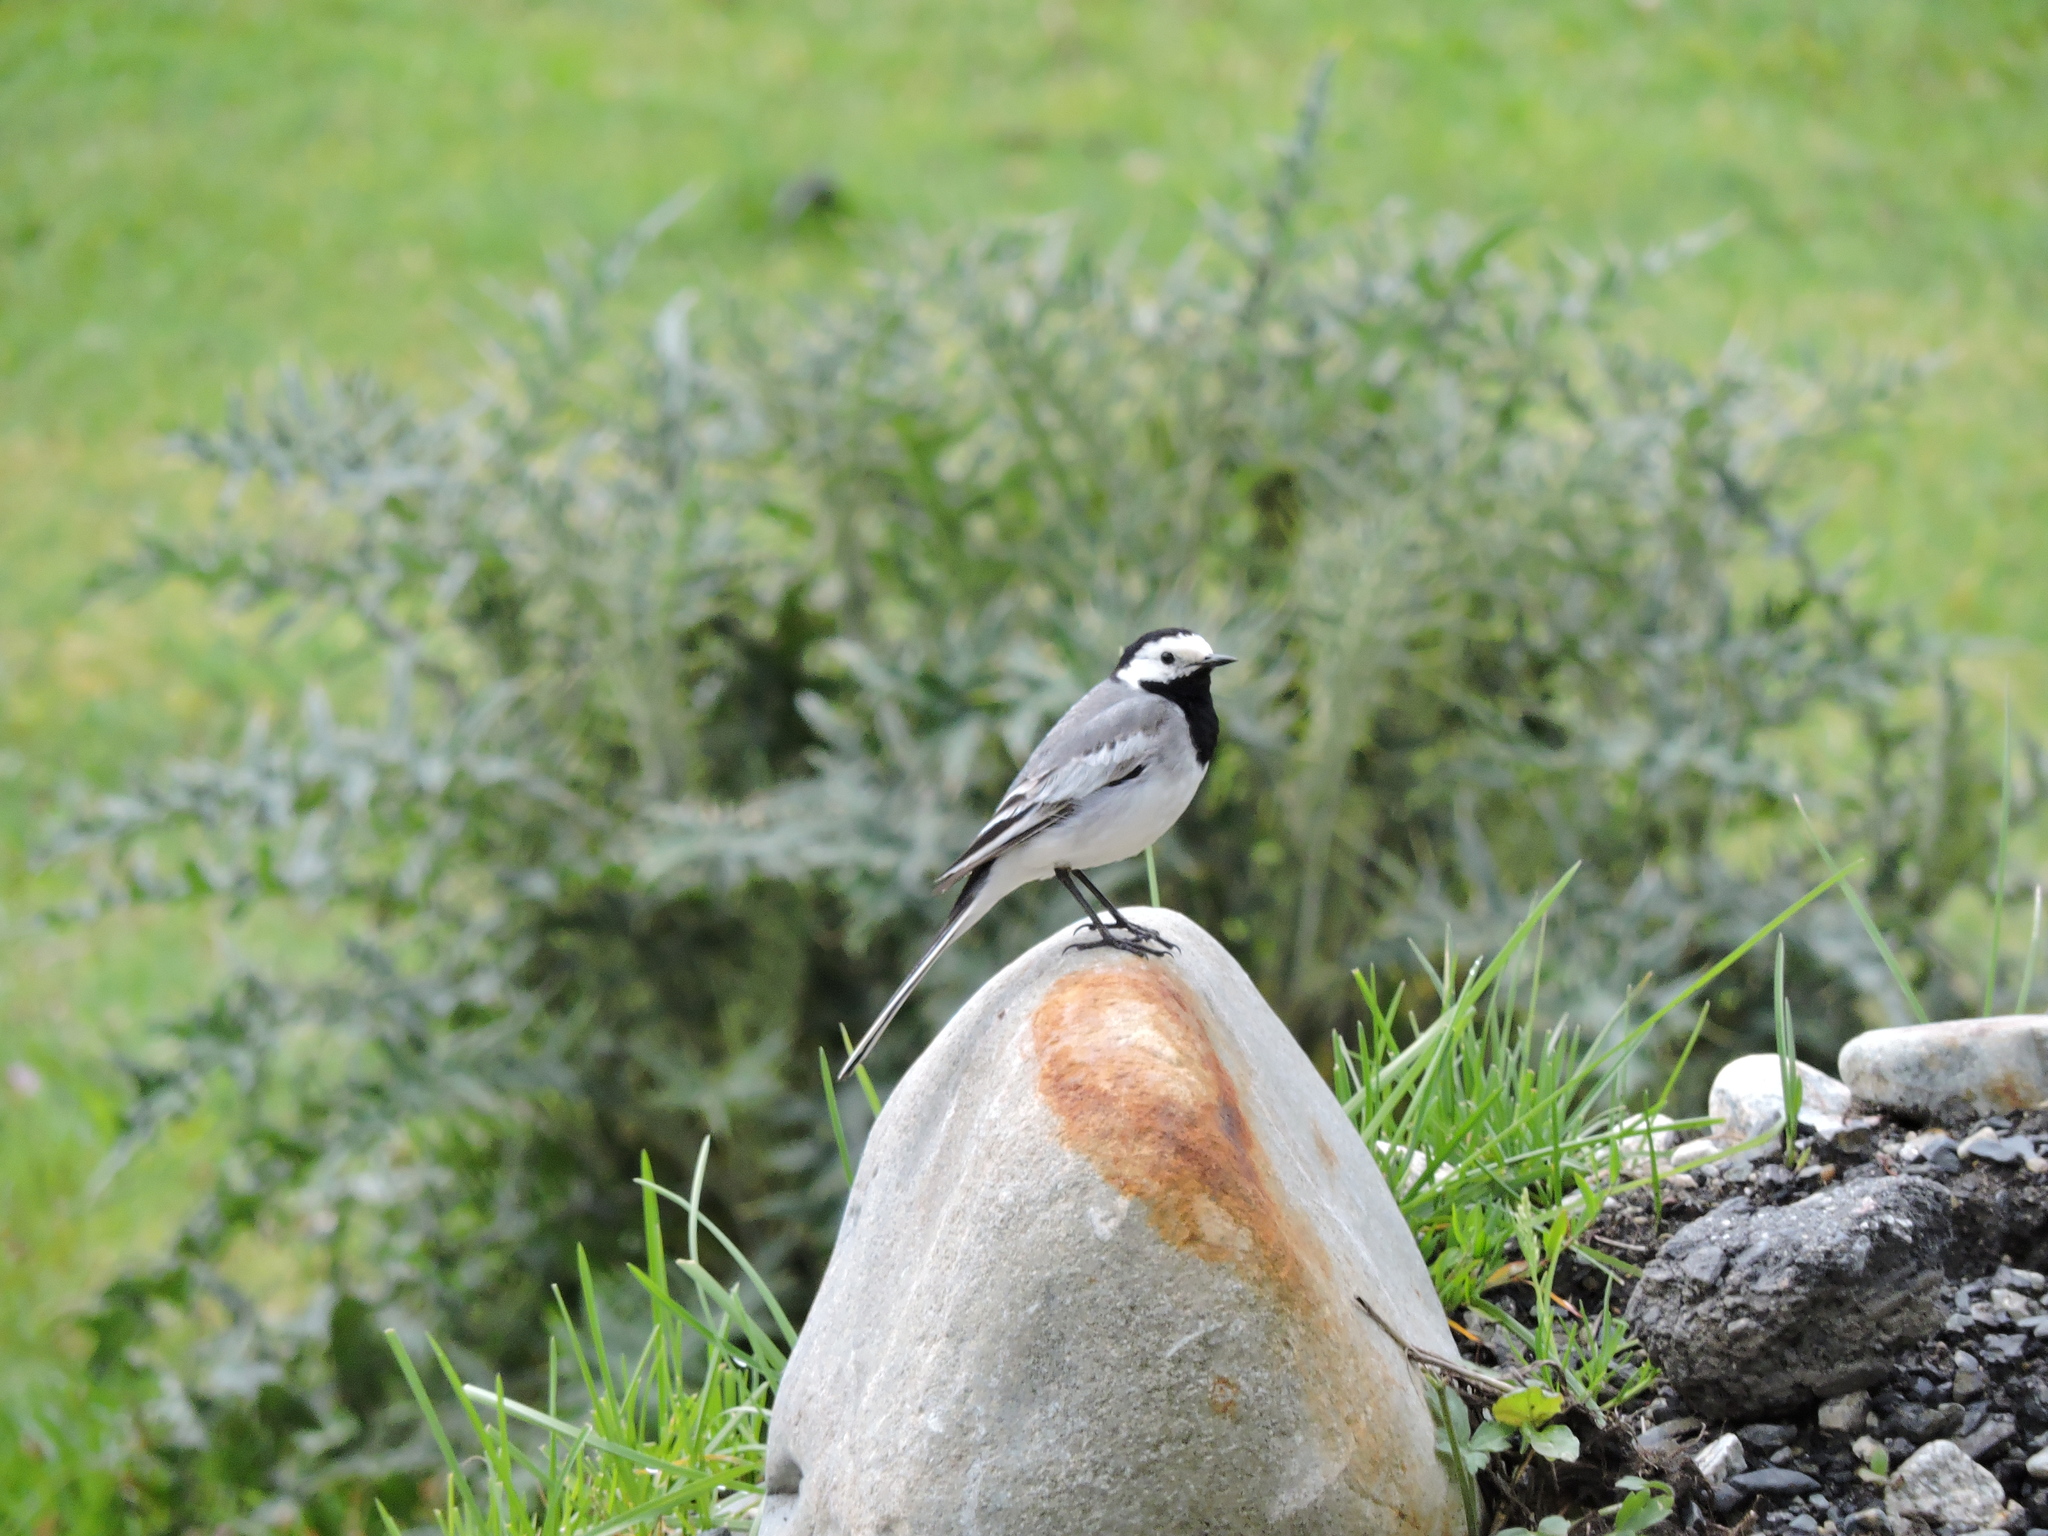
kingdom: Animalia
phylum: Chordata
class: Aves
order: Passeriformes
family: Motacillidae
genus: Motacilla
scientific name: Motacilla alba
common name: White wagtail
